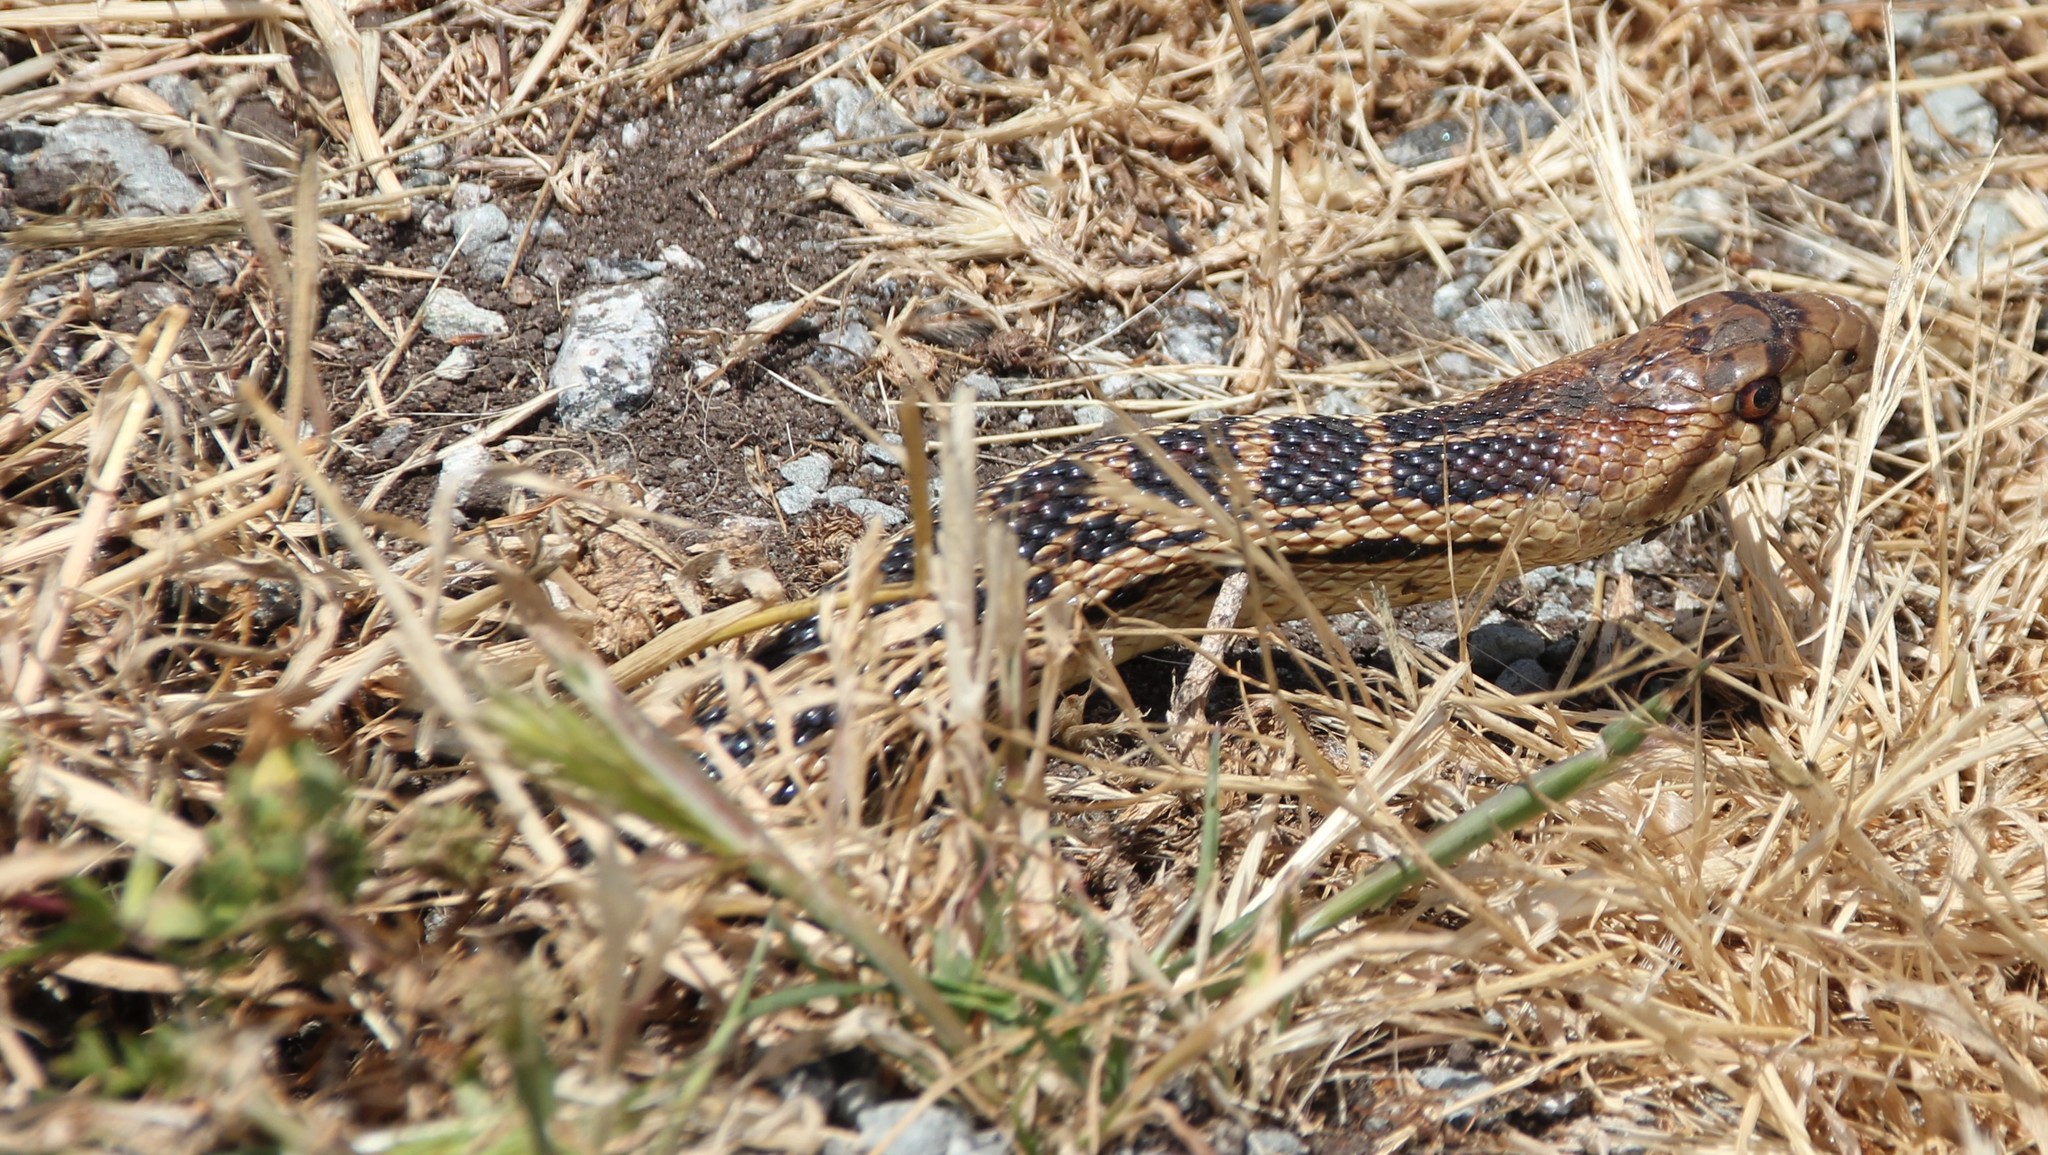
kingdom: Animalia
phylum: Chordata
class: Squamata
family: Colubridae
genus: Pituophis
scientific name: Pituophis catenifer
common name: Gopher snake
